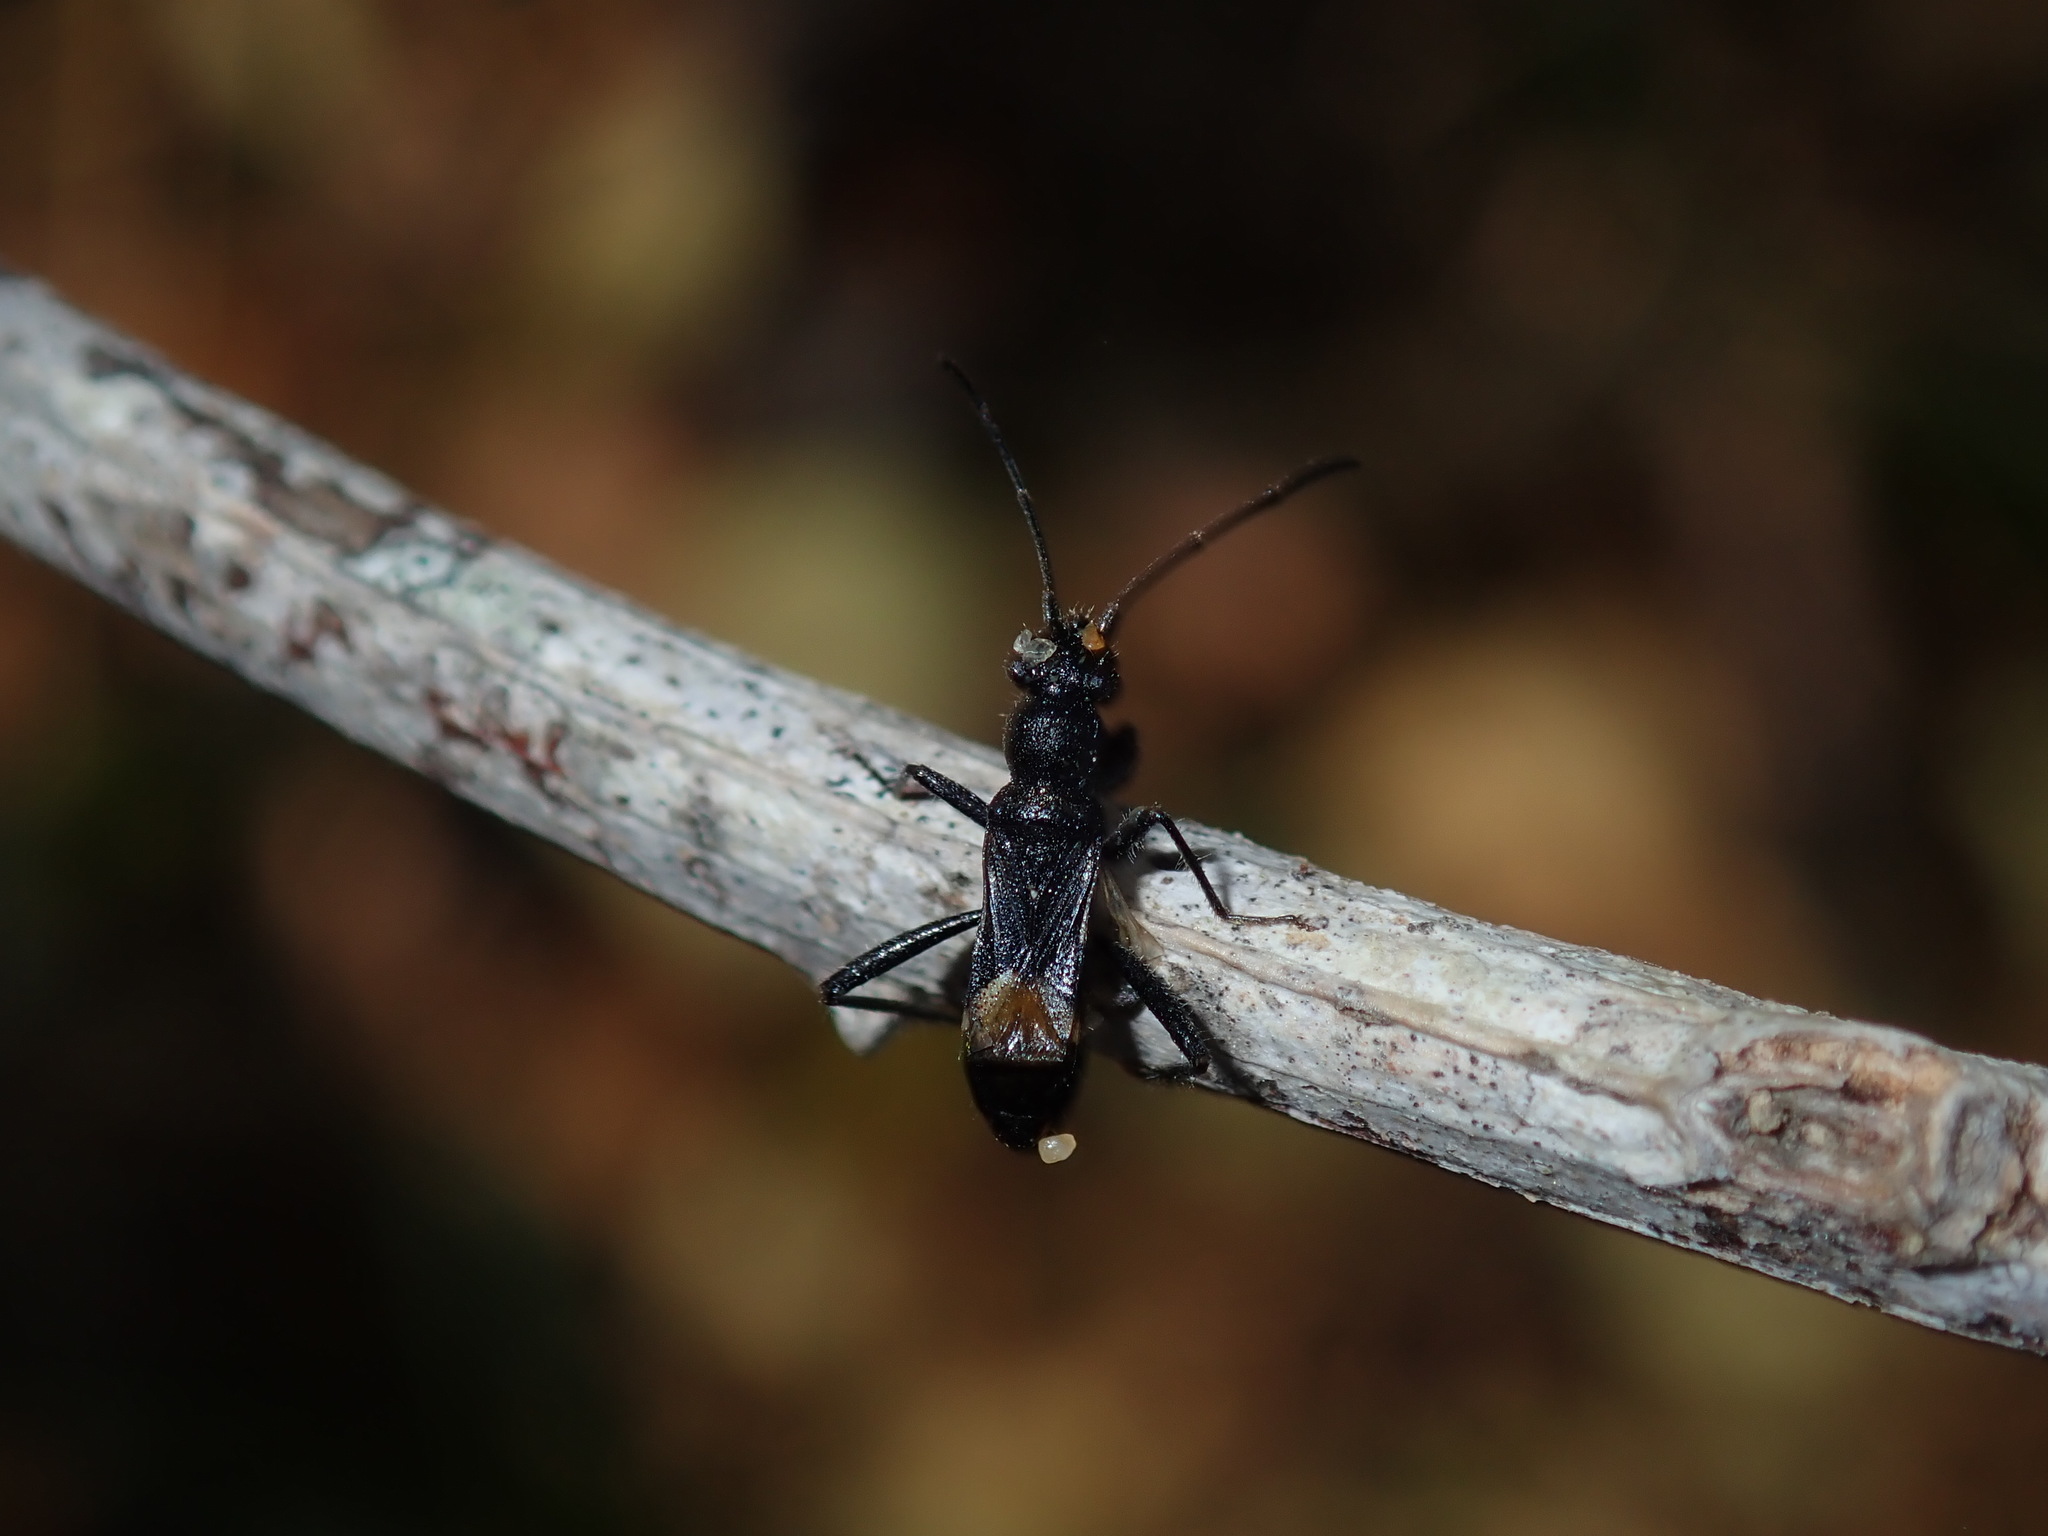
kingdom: Animalia
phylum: Arthropoda
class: Insecta
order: Hemiptera
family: Rhyparochromidae
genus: Daerlac
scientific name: Daerlac nigricans
